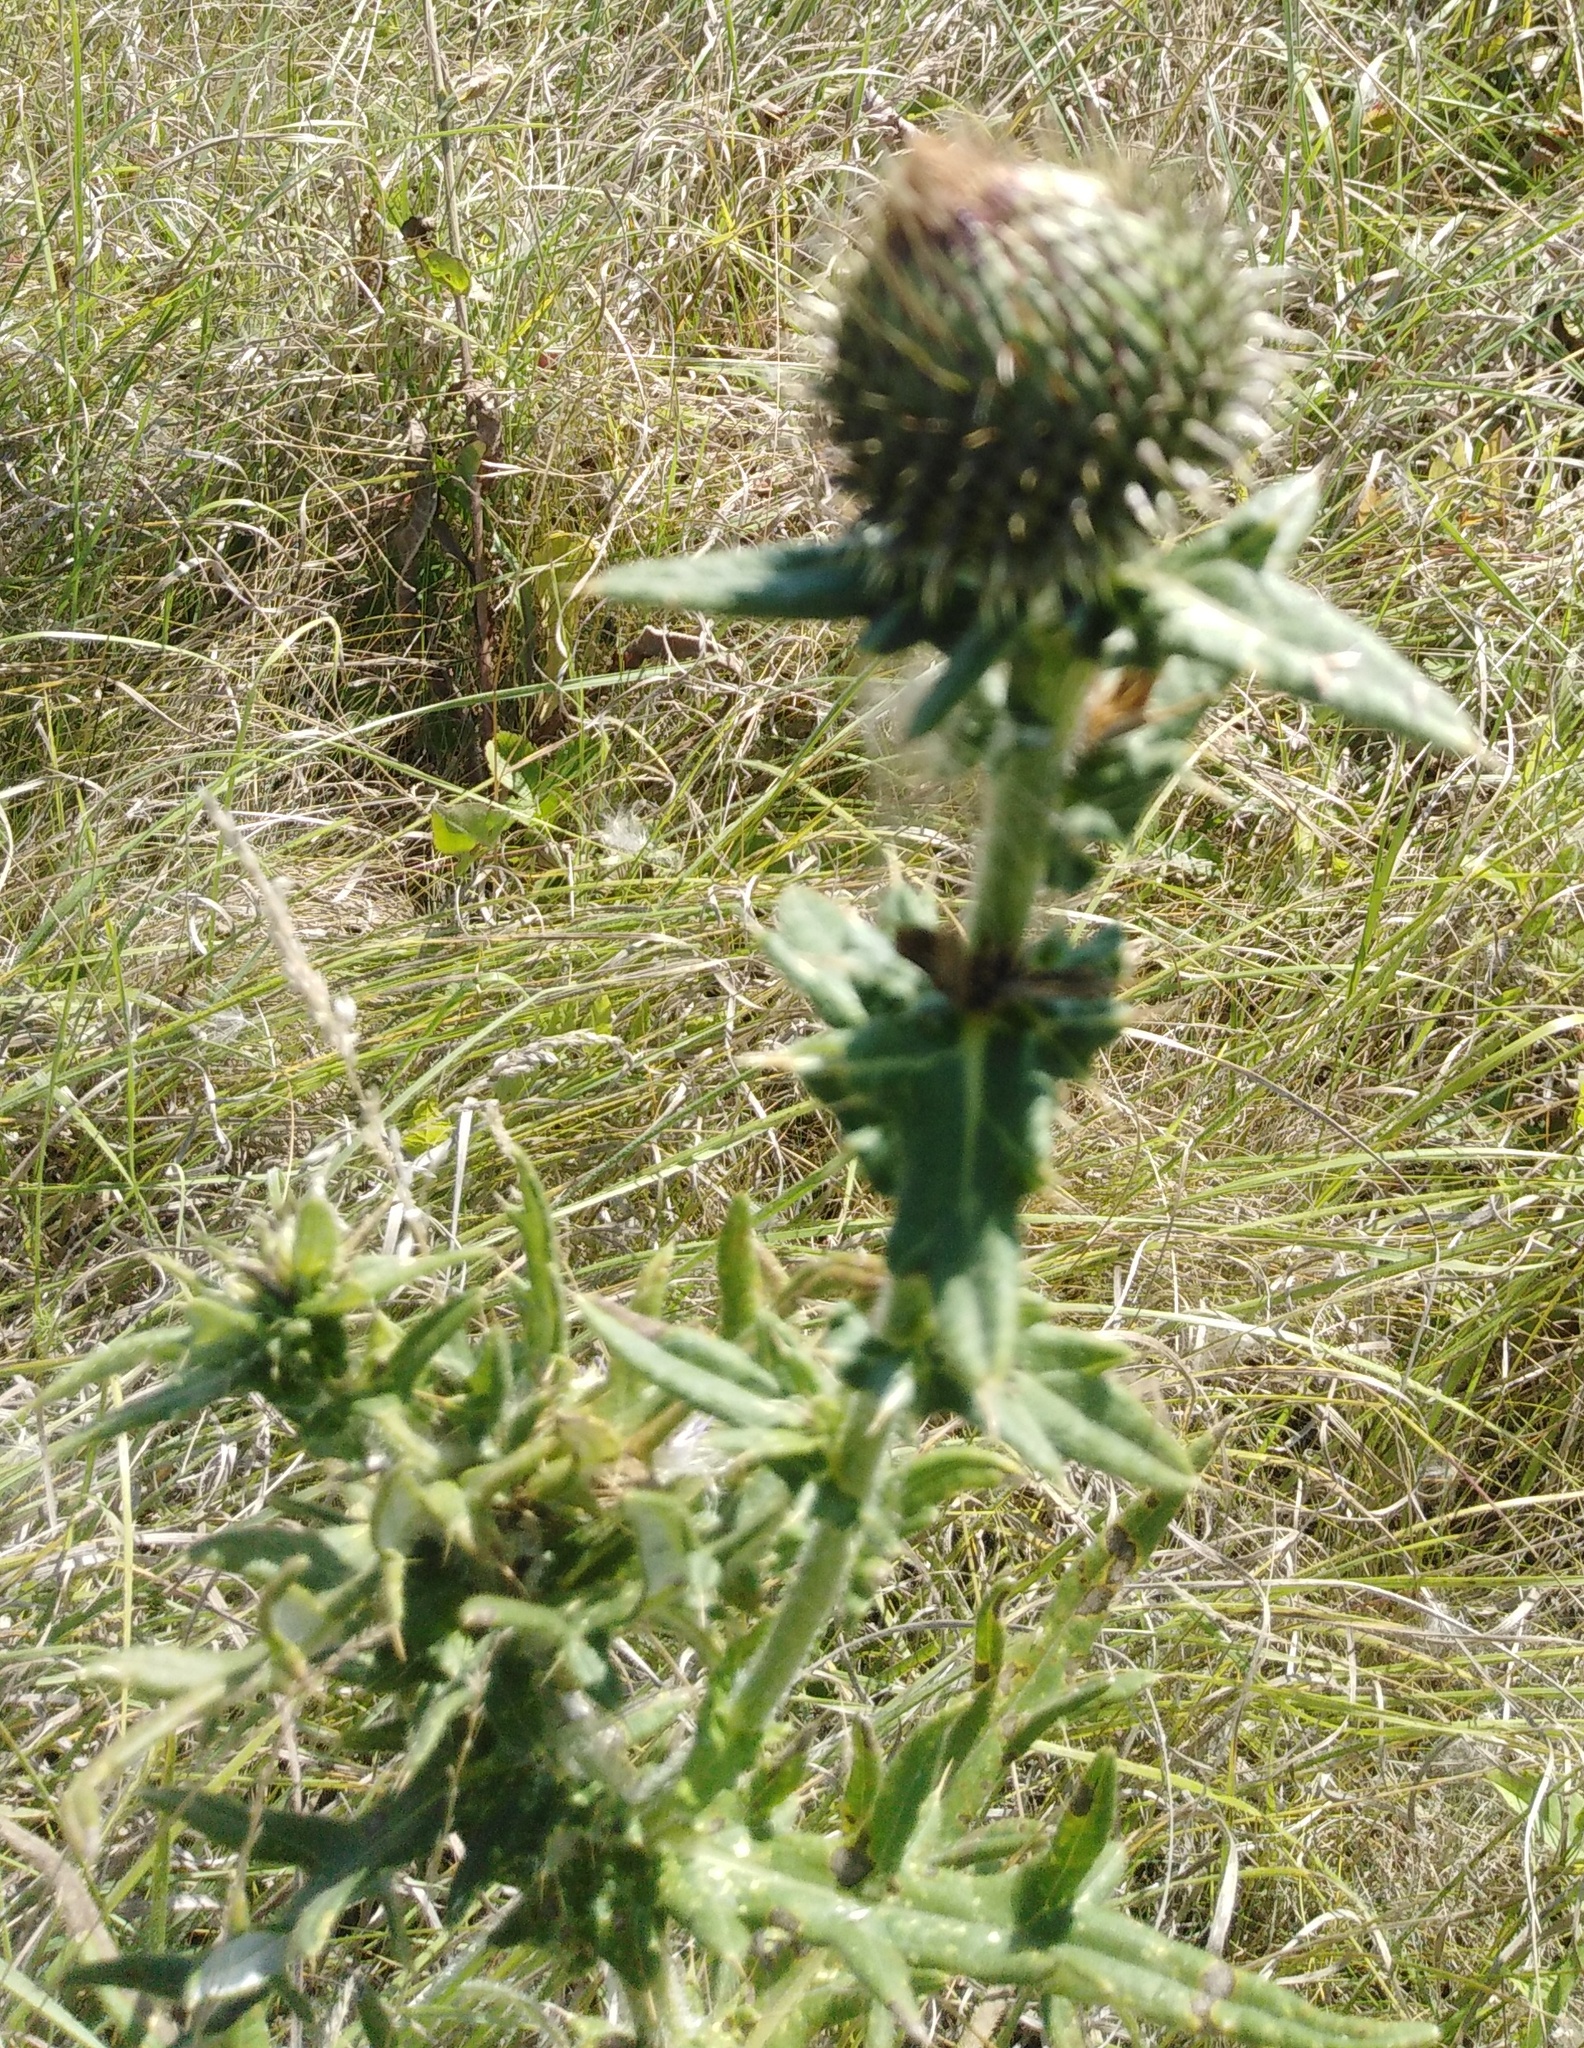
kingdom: Plantae
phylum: Tracheophyta
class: Magnoliopsida
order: Asterales
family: Asteraceae
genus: Cirsium
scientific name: Cirsium serrulatum
